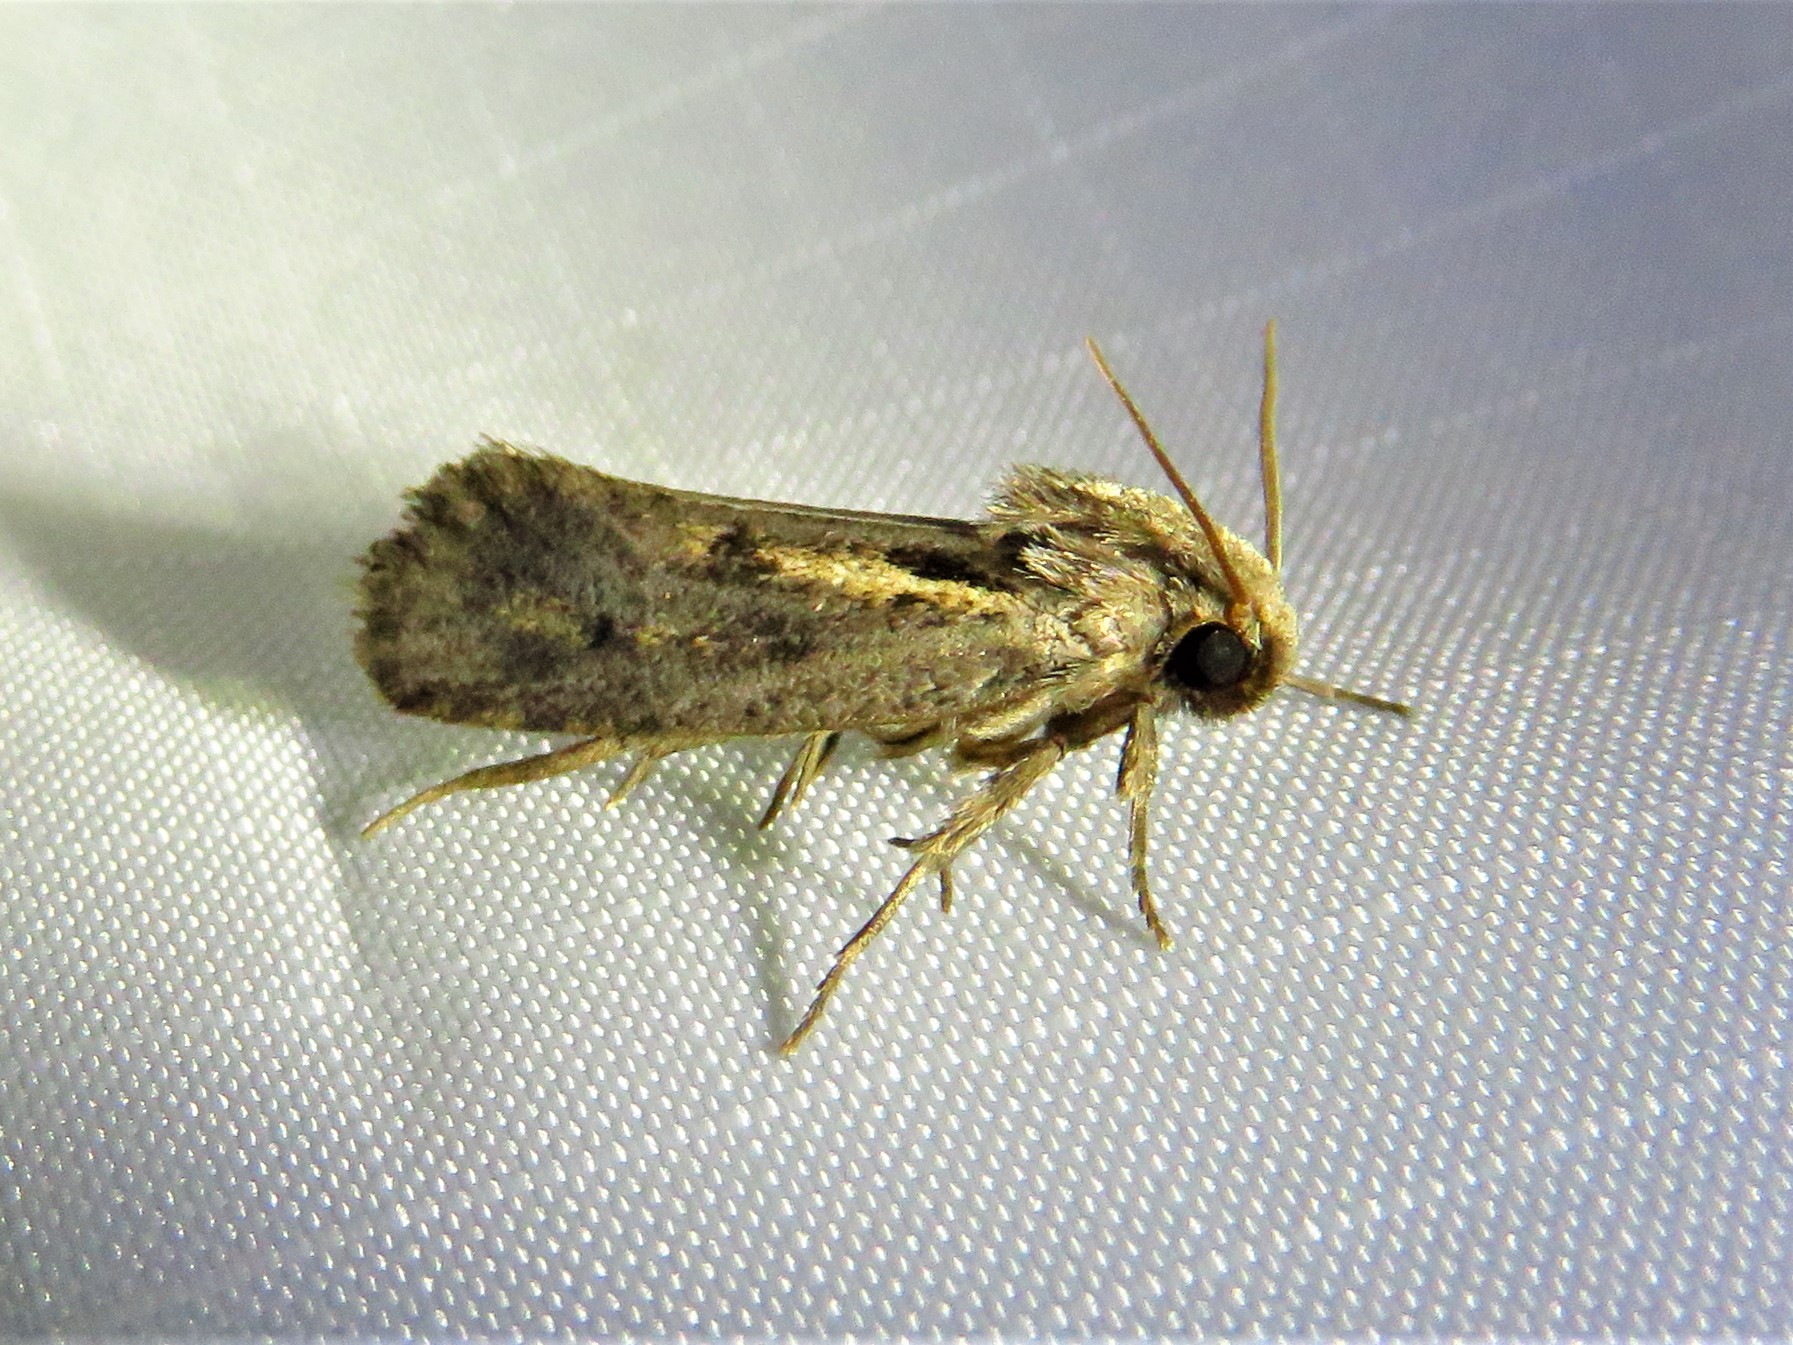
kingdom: Animalia
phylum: Arthropoda
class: Insecta
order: Lepidoptera
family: Tineidae
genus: Acrolophus
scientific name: Acrolophus popeanella
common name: Clemens' grass tubeworm moth
